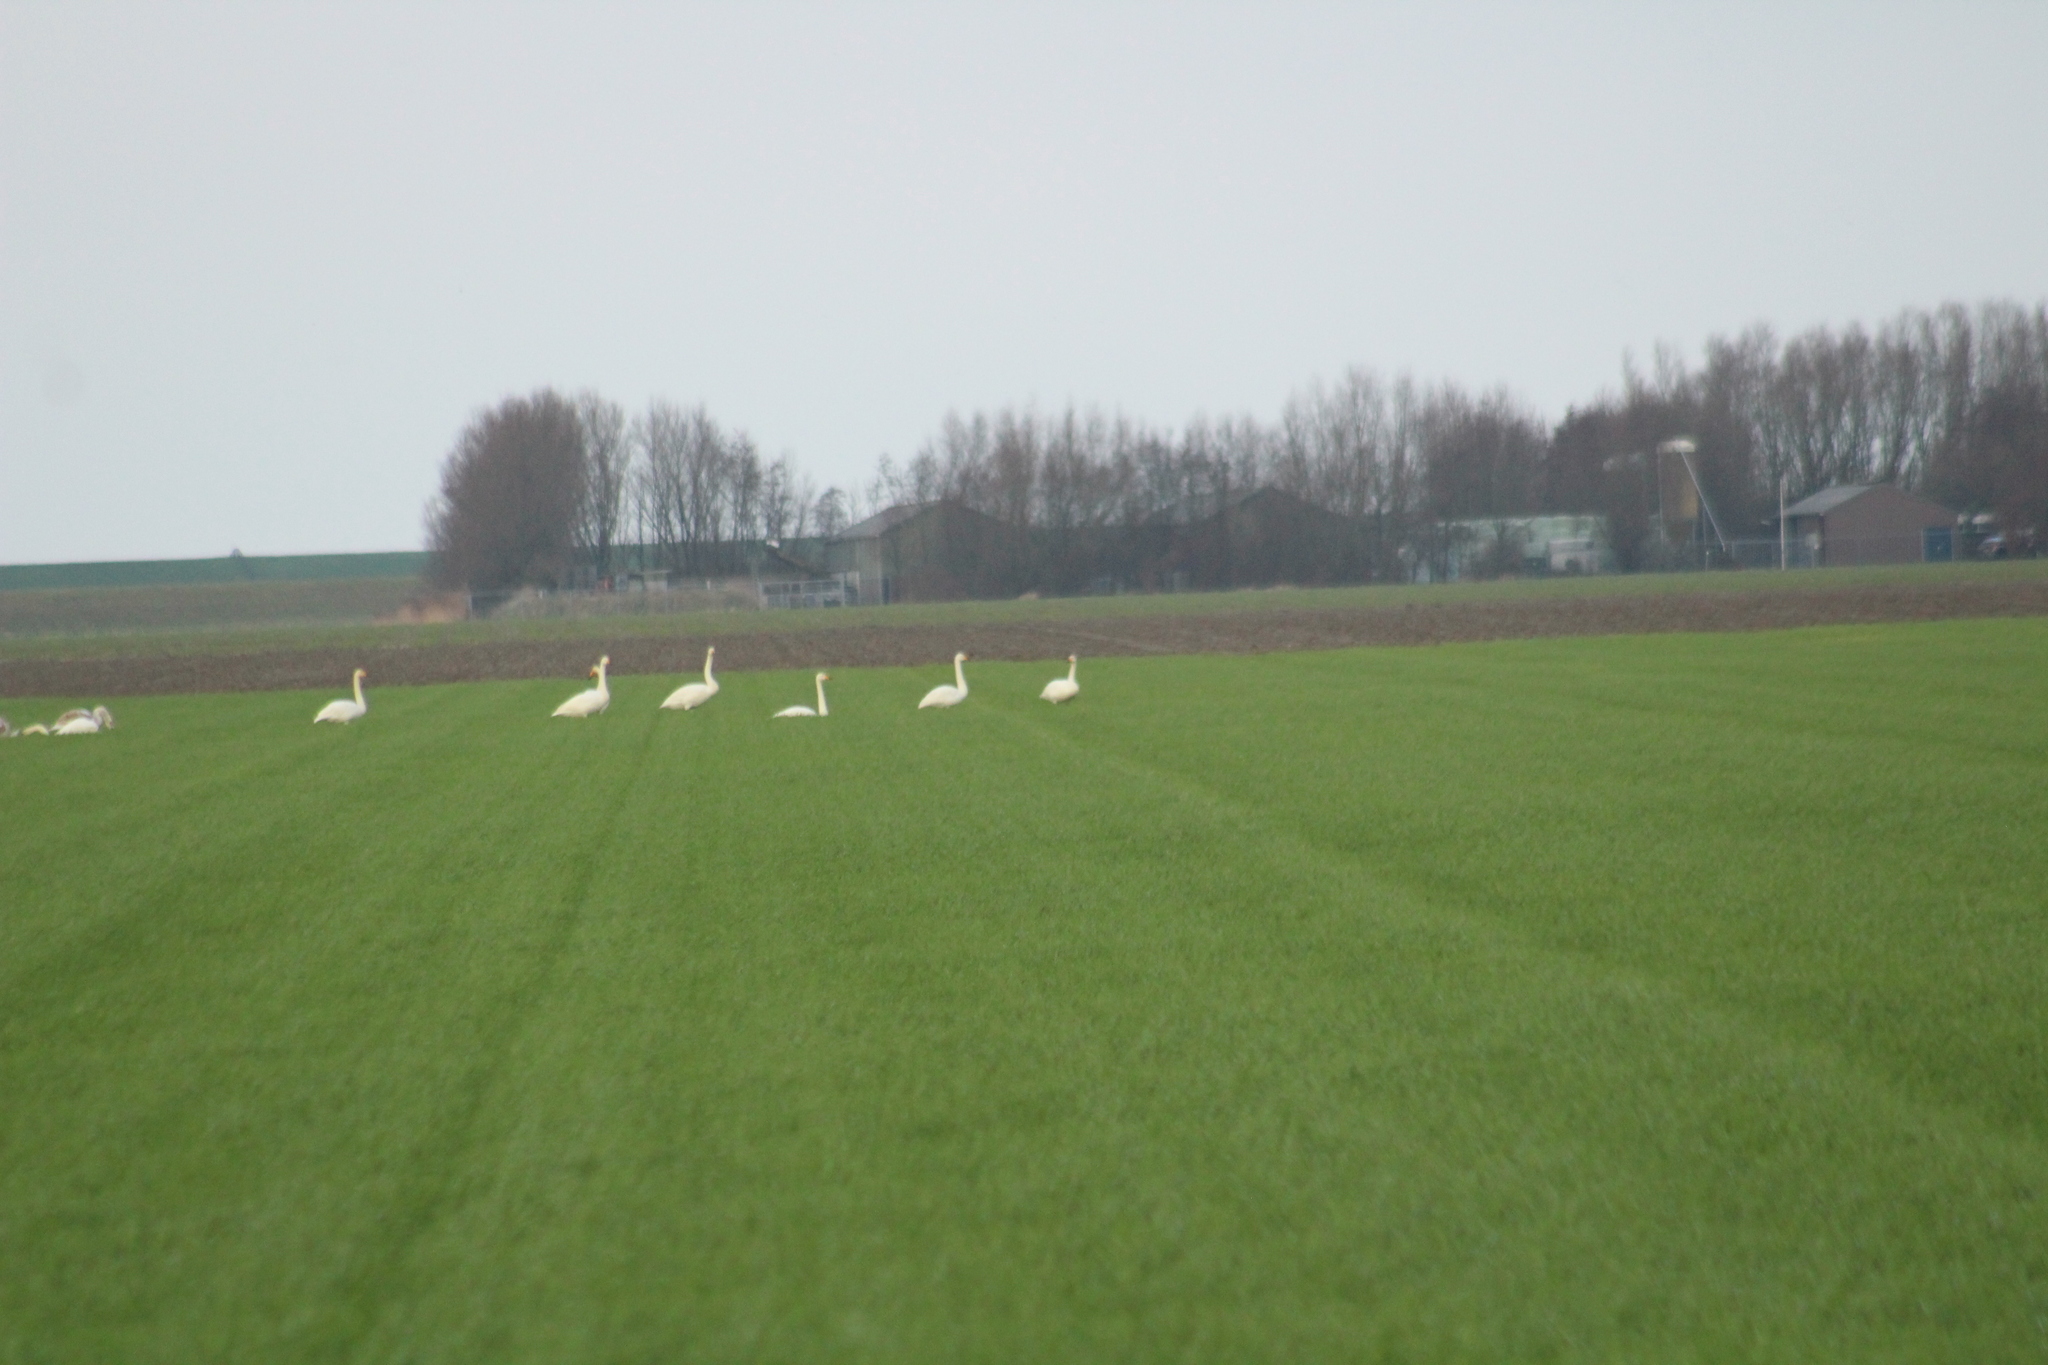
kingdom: Animalia
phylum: Chordata
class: Aves
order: Anseriformes
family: Anatidae
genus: Cygnus
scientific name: Cygnus cygnus
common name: Whooper swan
